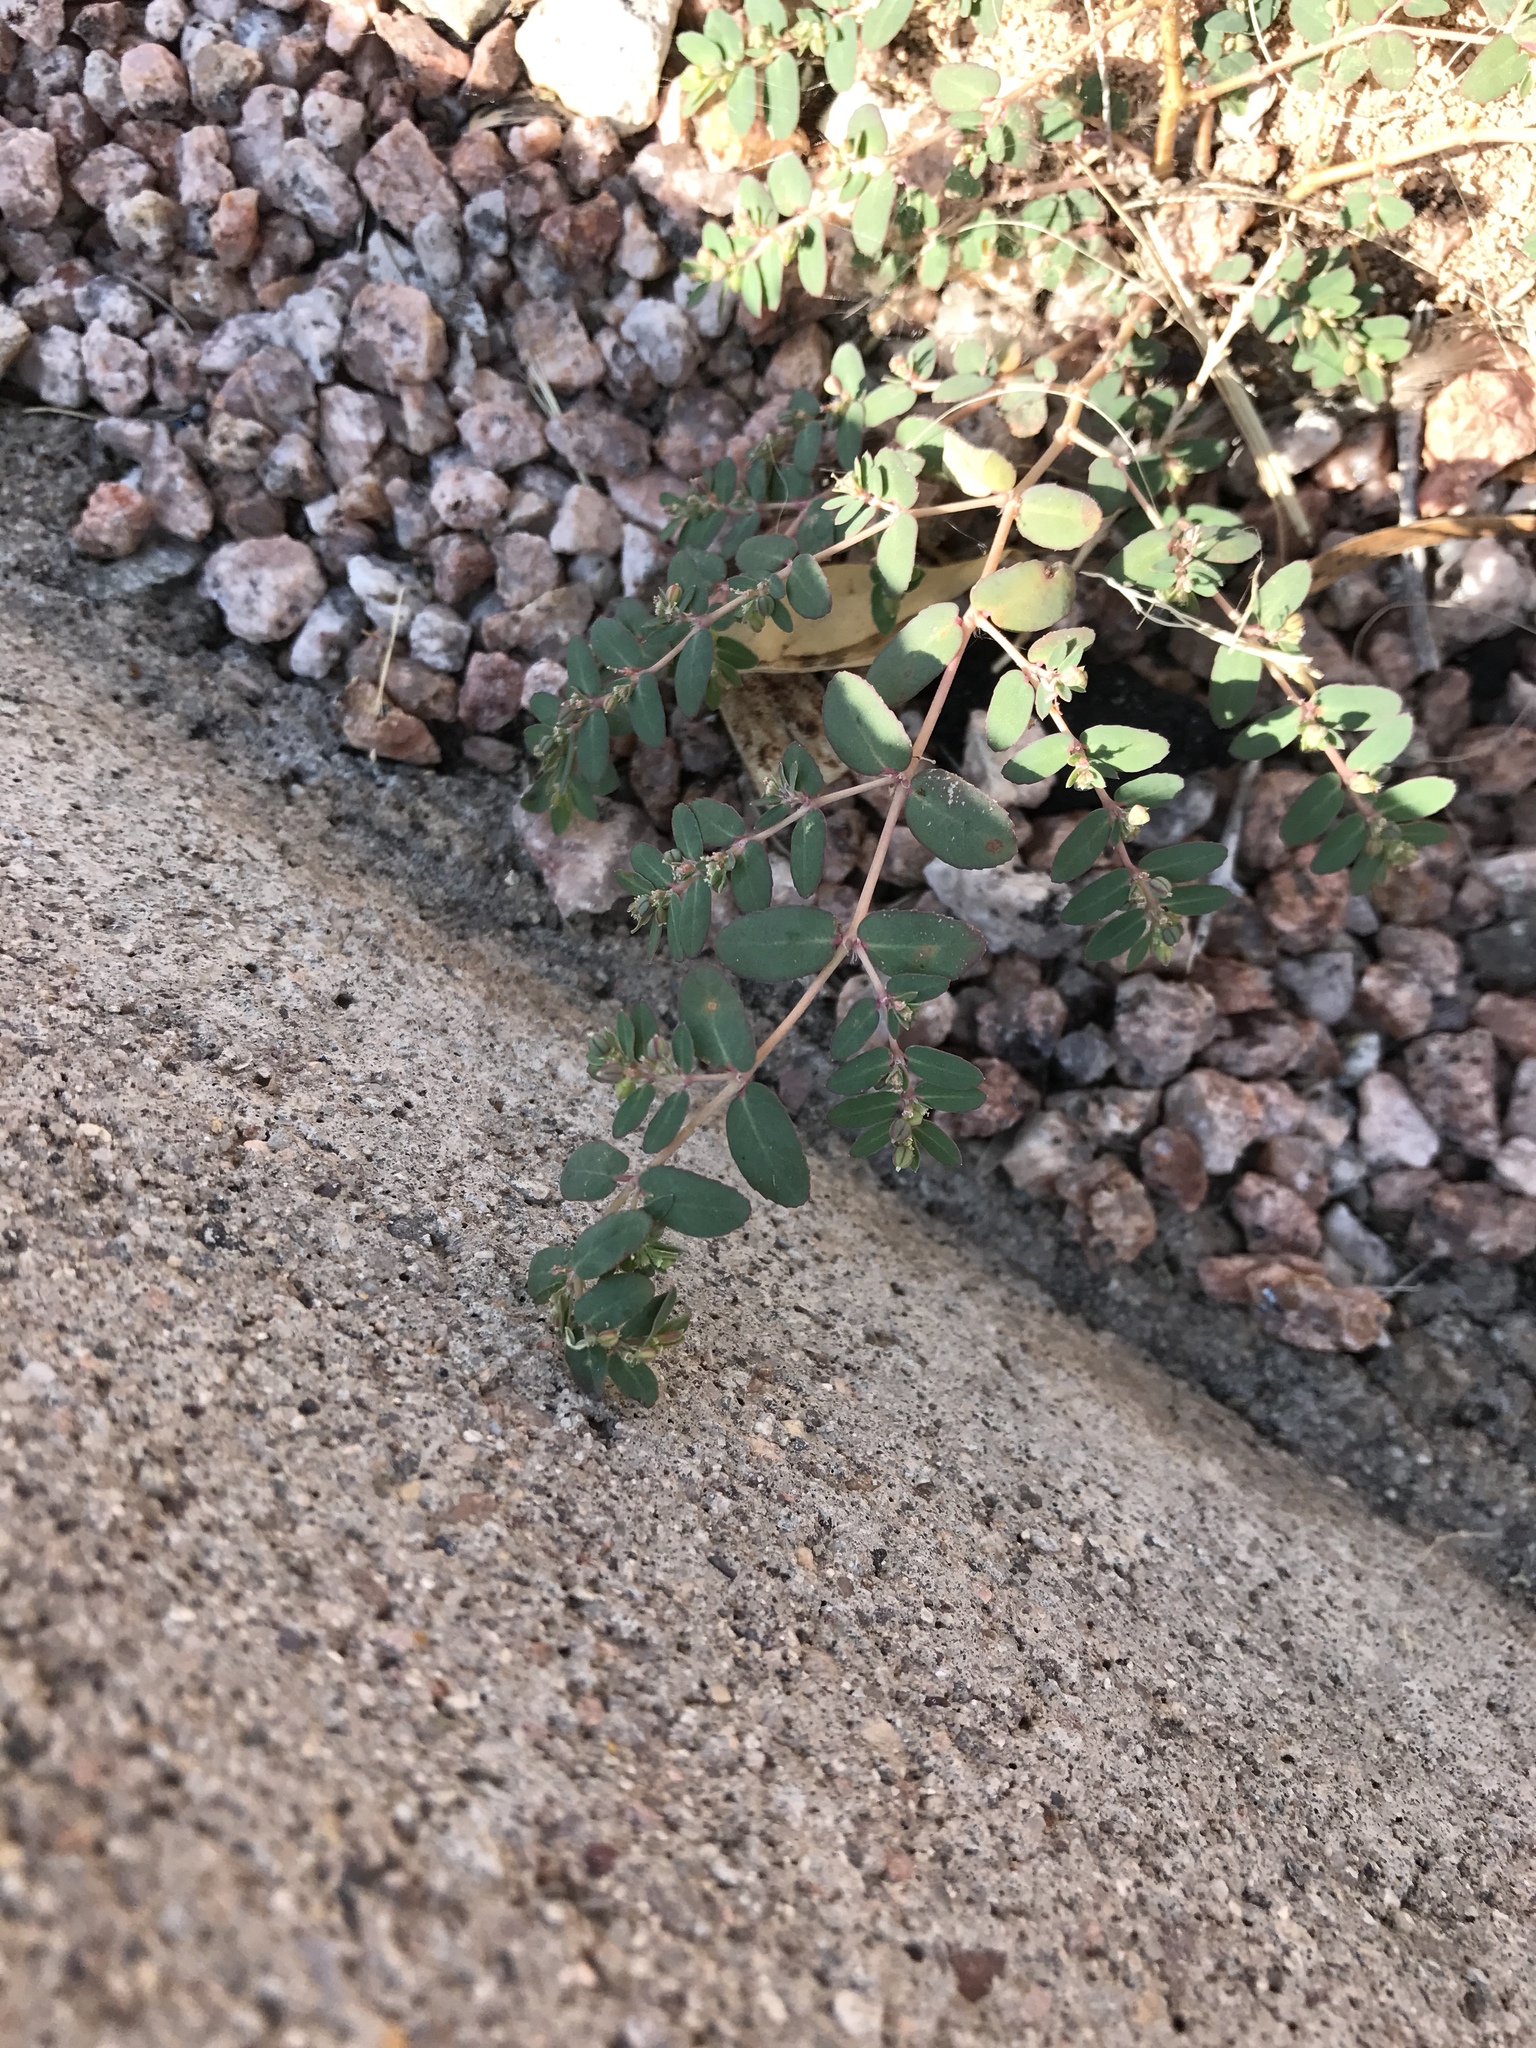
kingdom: Plantae
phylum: Tracheophyta
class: Magnoliopsida
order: Malpighiales
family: Euphorbiaceae
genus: Euphorbia
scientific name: Euphorbia abramsiana
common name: Abram's spurge
